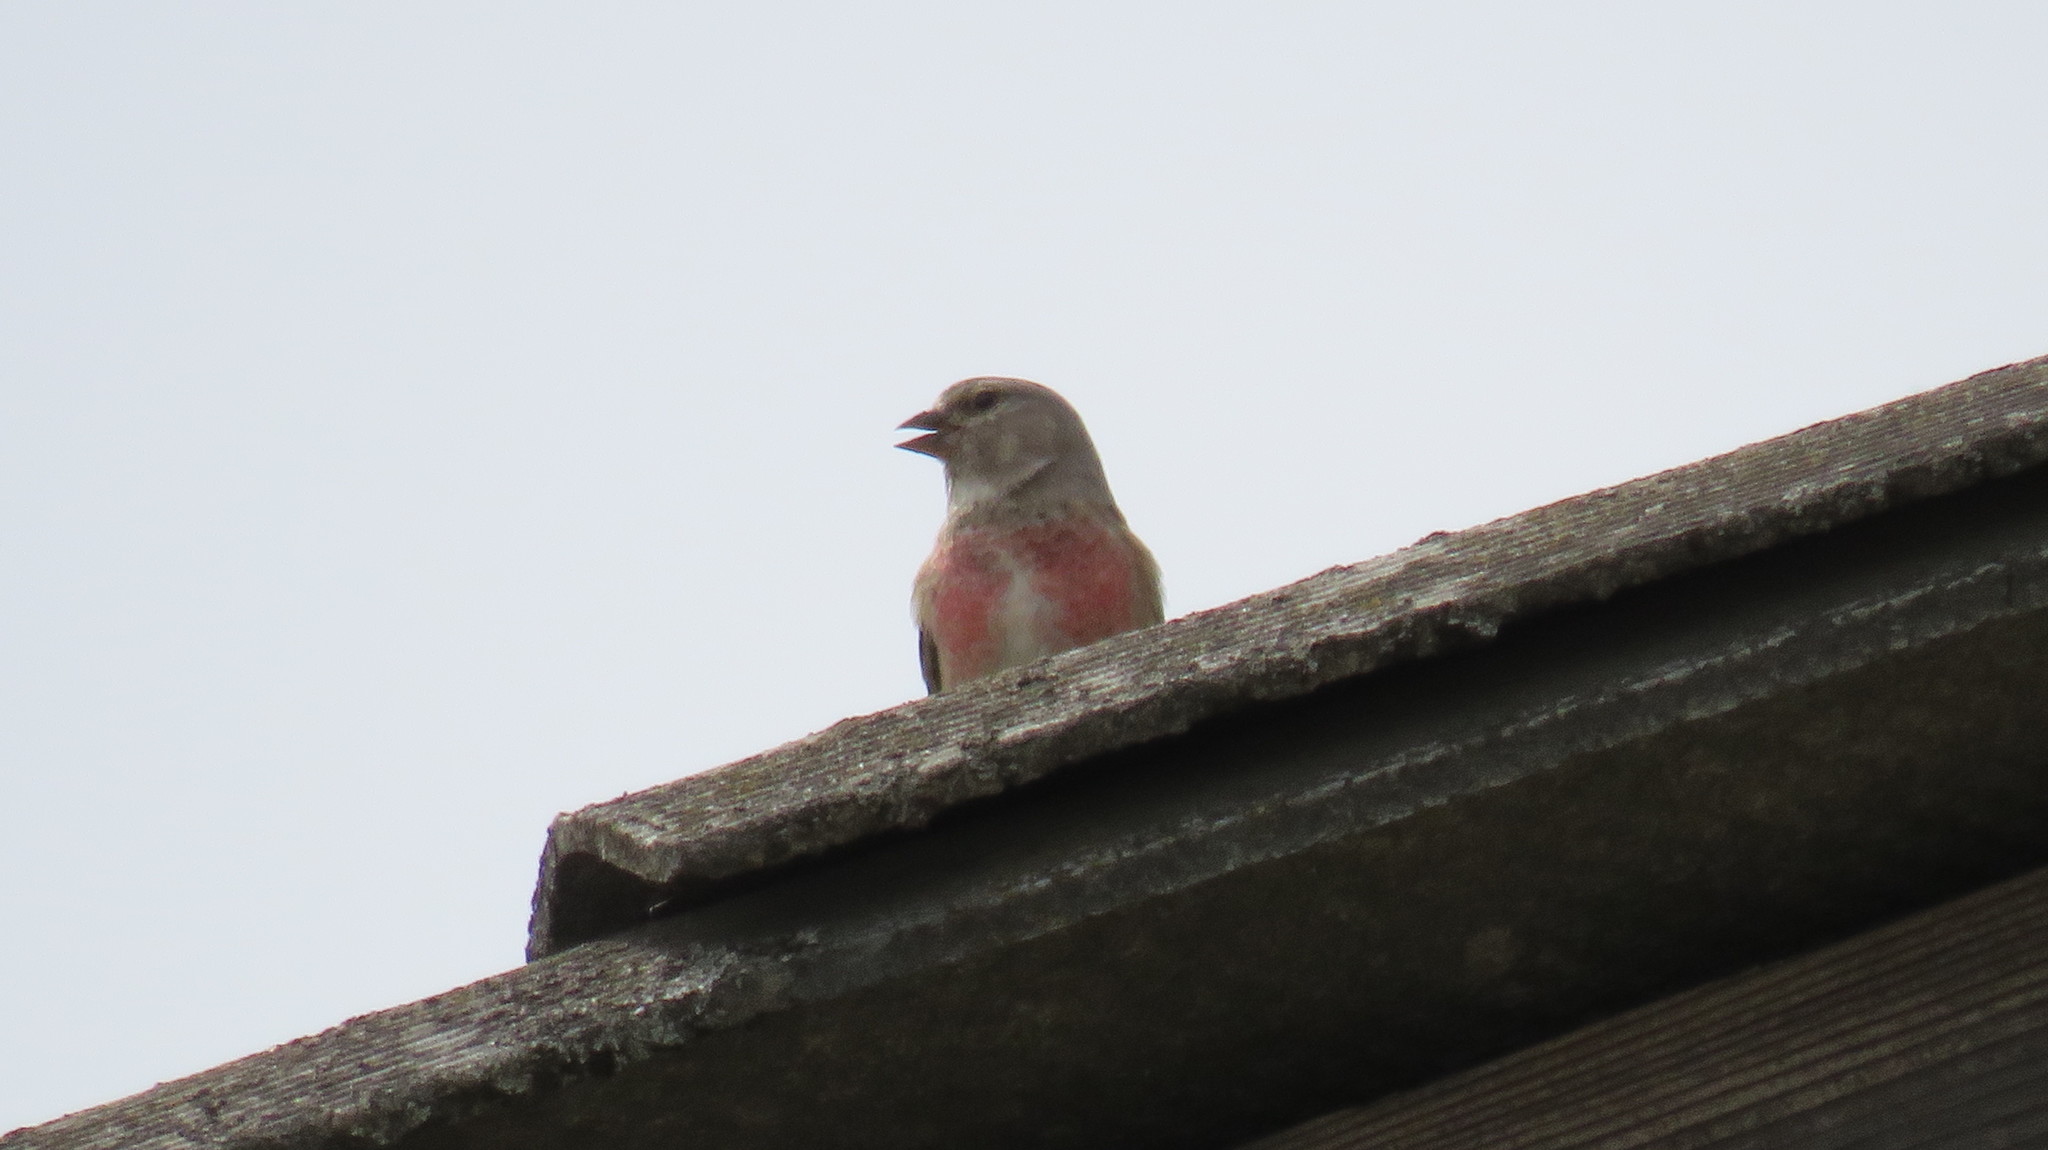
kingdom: Animalia
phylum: Chordata
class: Aves
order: Passeriformes
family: Fringillidae
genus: Linaria
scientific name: Linaria cannabina
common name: Common linnet
